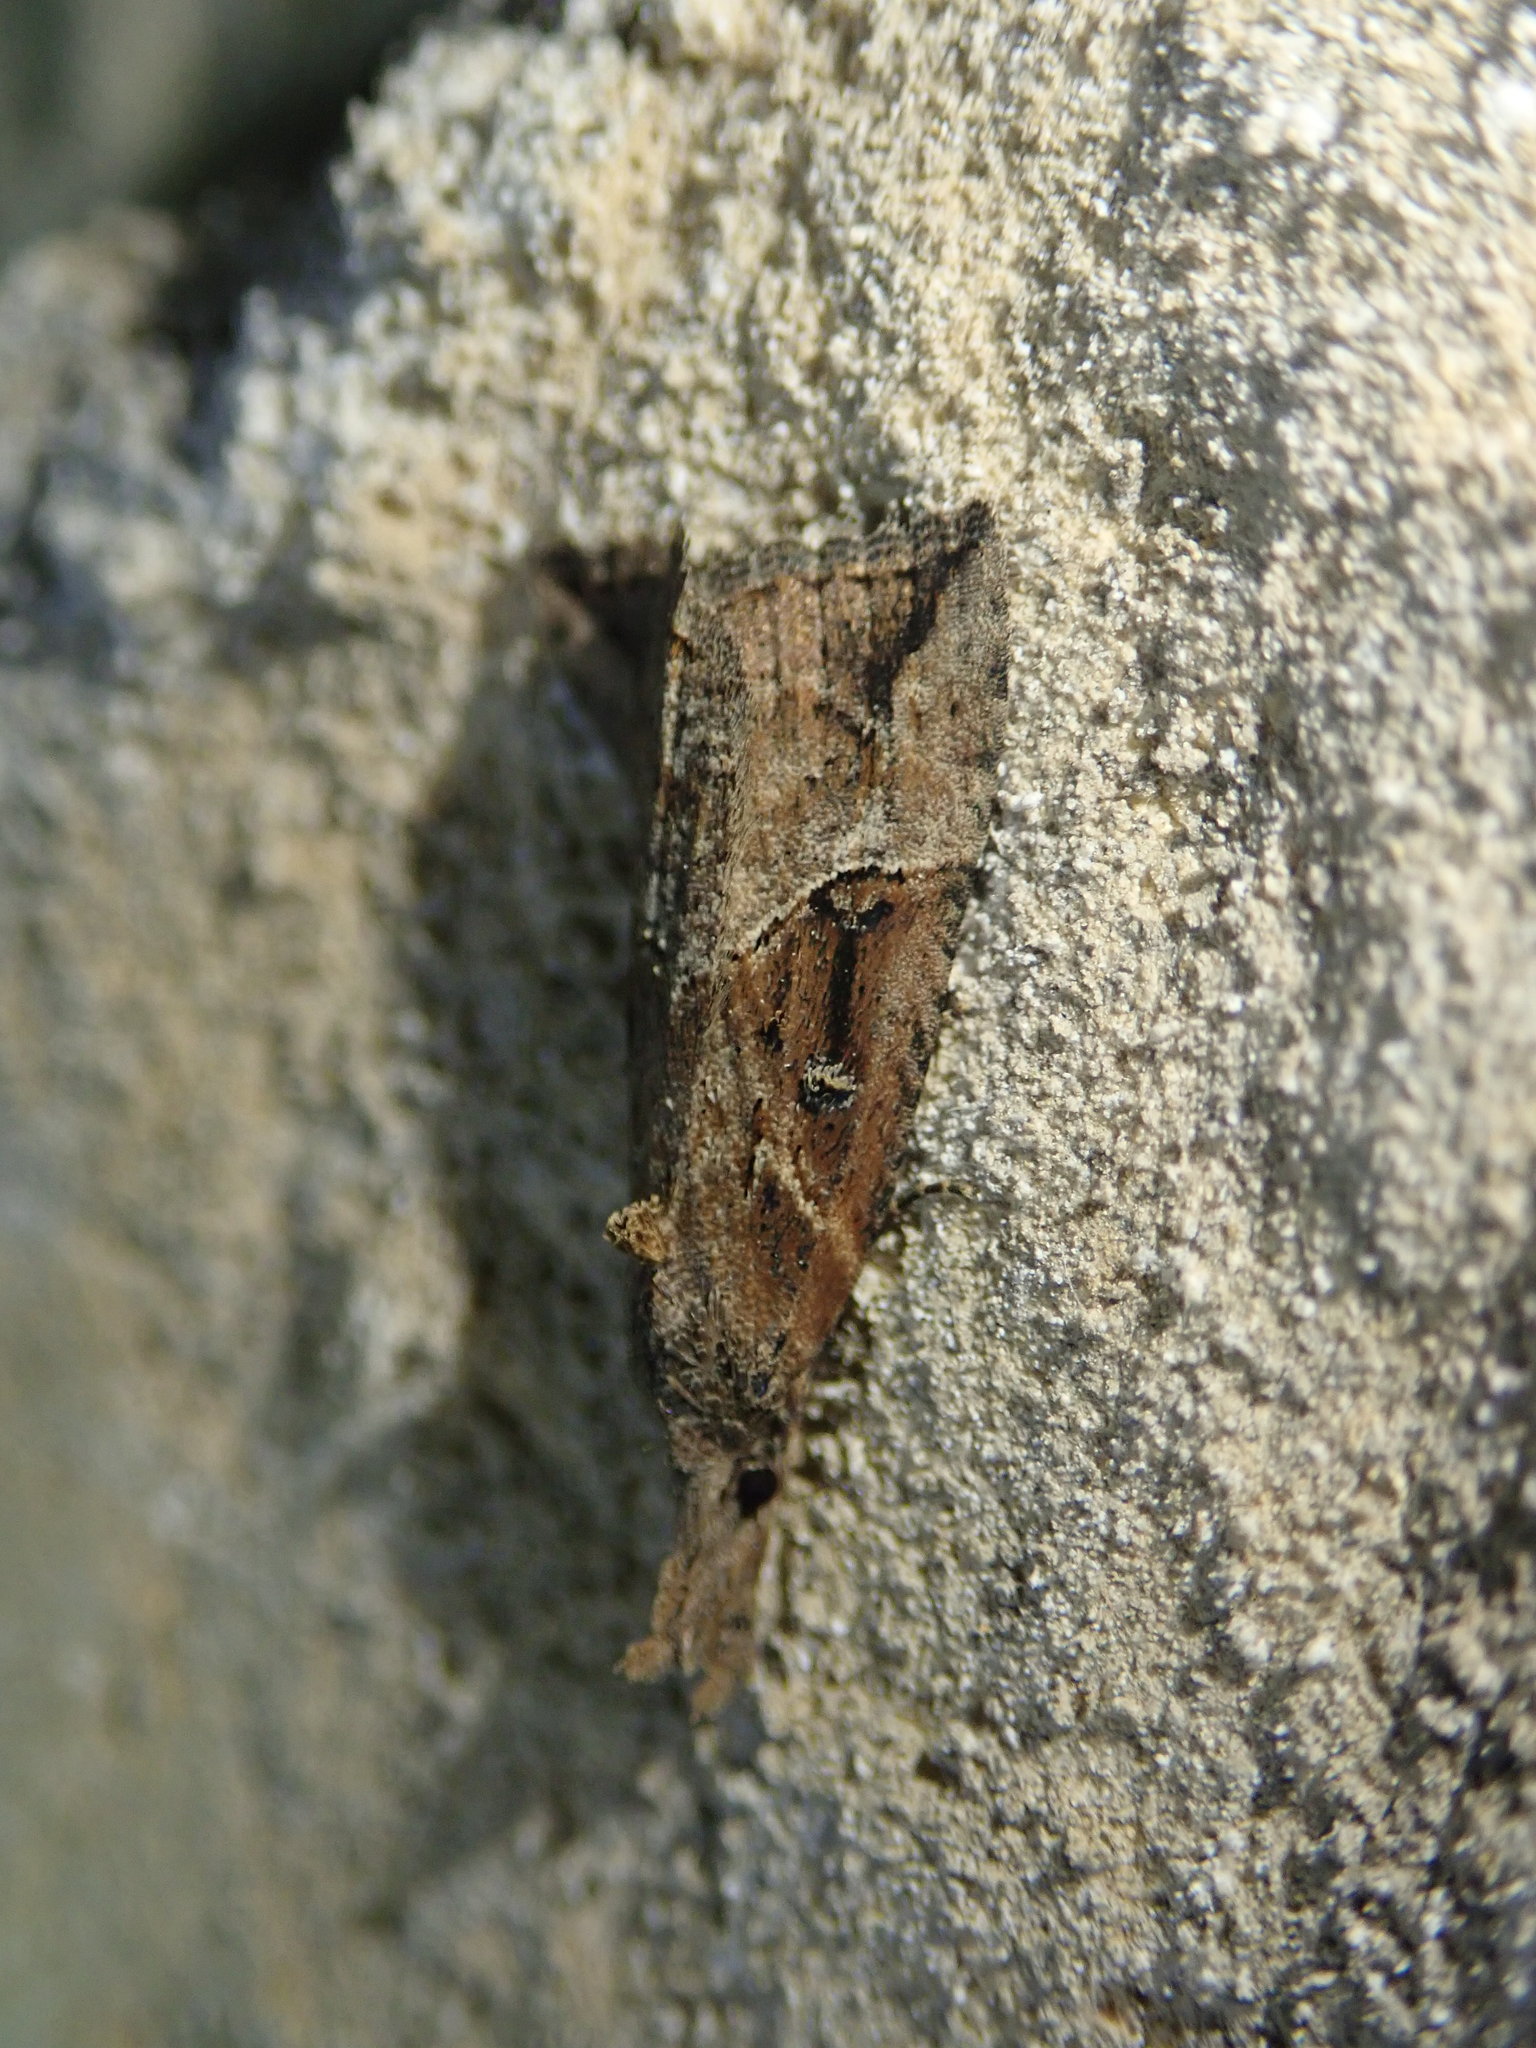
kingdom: Animalia
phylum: Arthropoda
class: Insecta
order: Lepidoptera
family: Erebidae
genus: Hypena
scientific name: Hypena rostralis
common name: Buttoned snout
